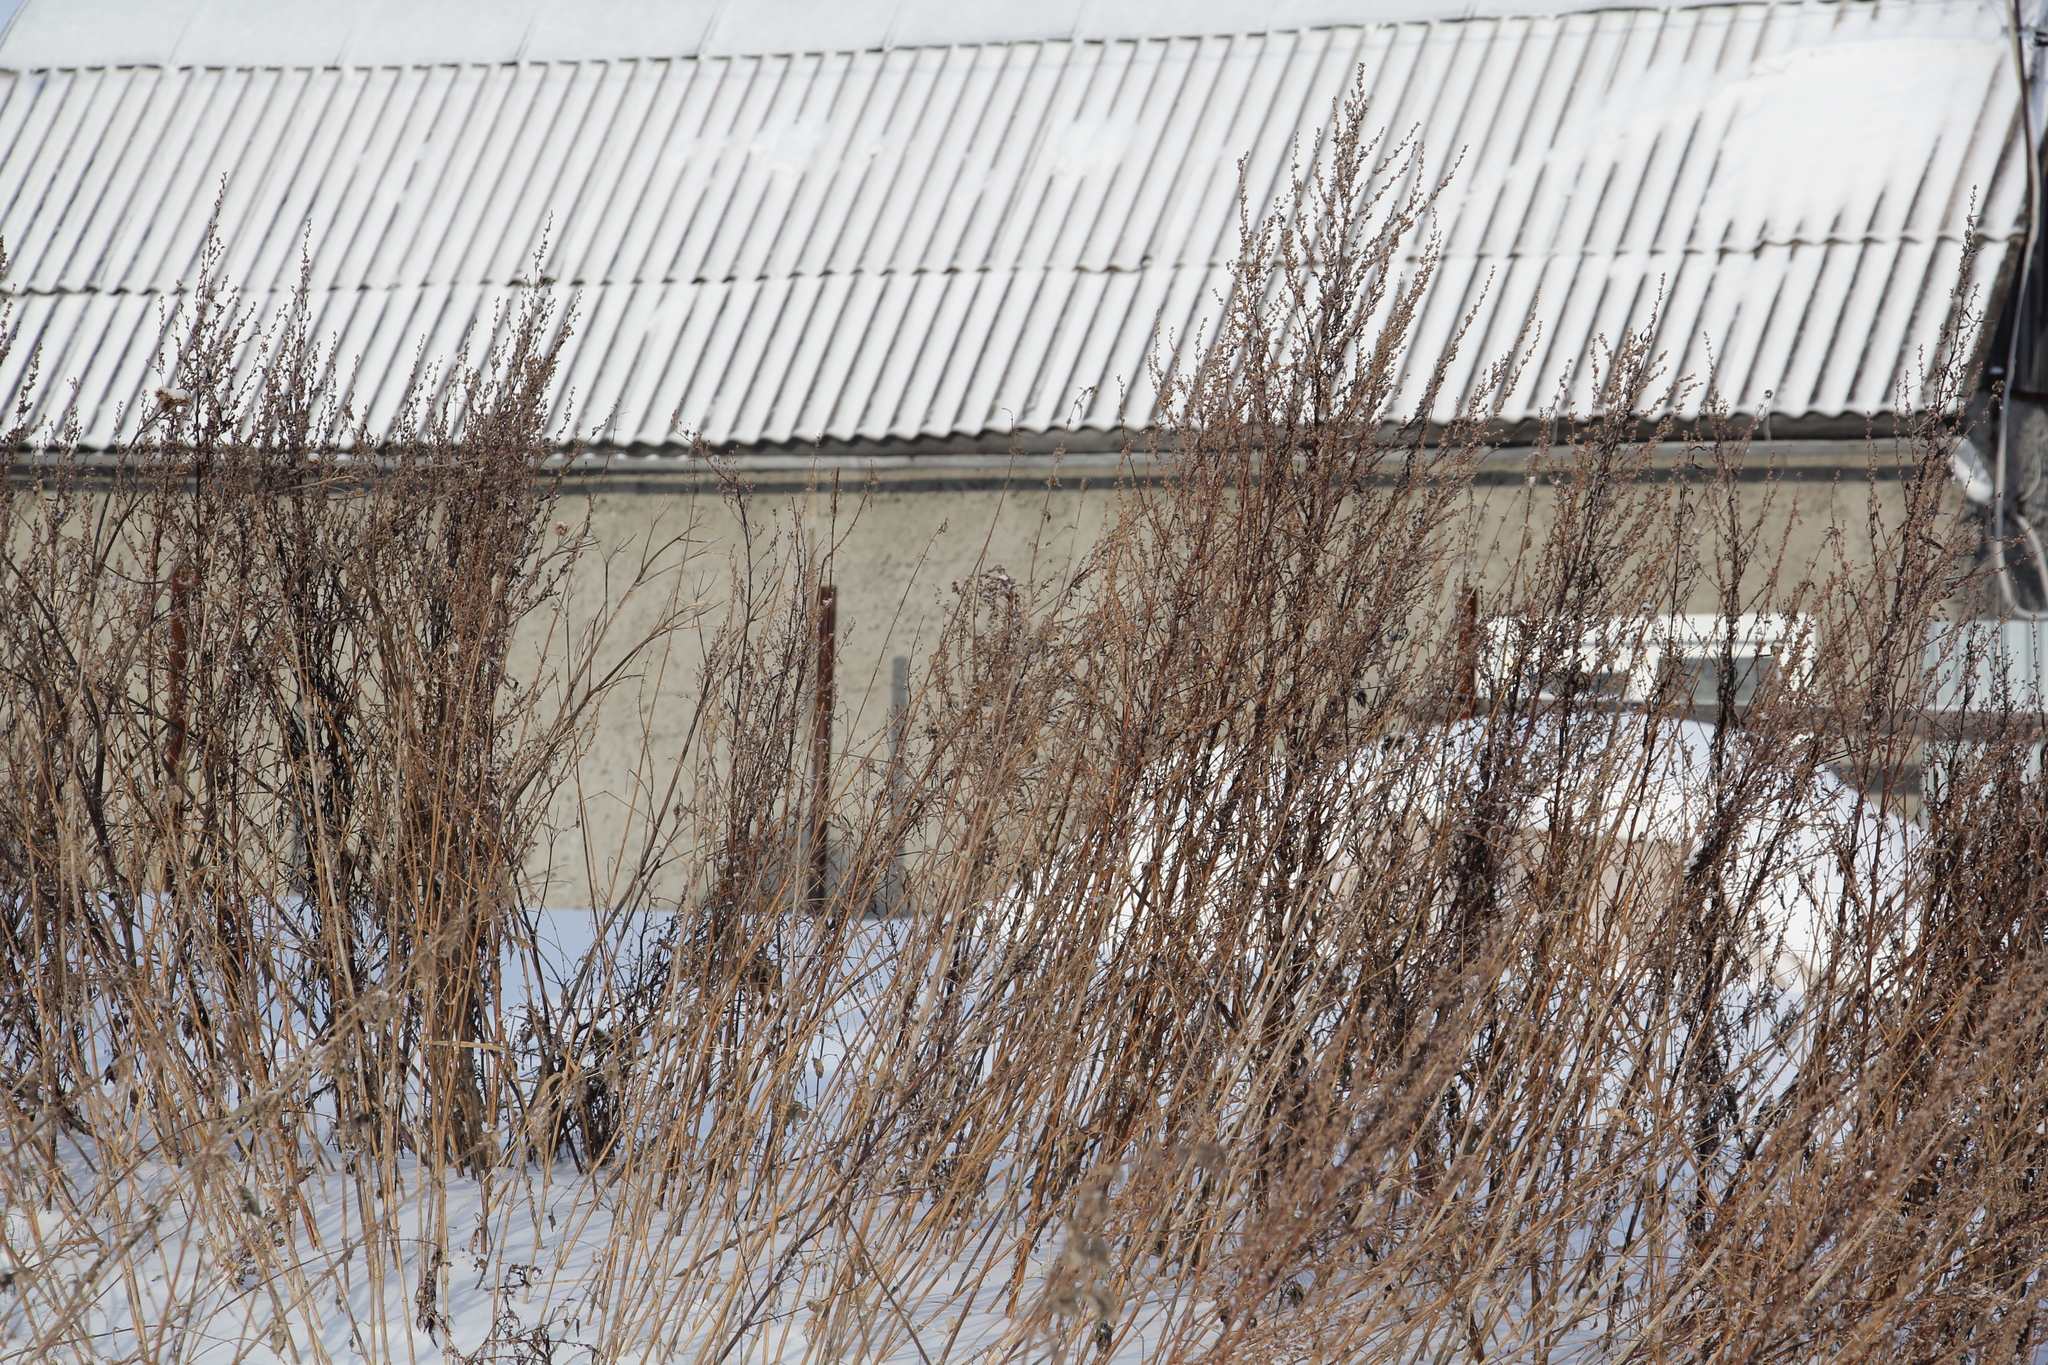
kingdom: Plantae
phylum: Tracheophyta
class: Magnoliopsida
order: Asterales
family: Asteraceae
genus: Artemisia
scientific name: Artemisia vulgaris
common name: Mugwort
